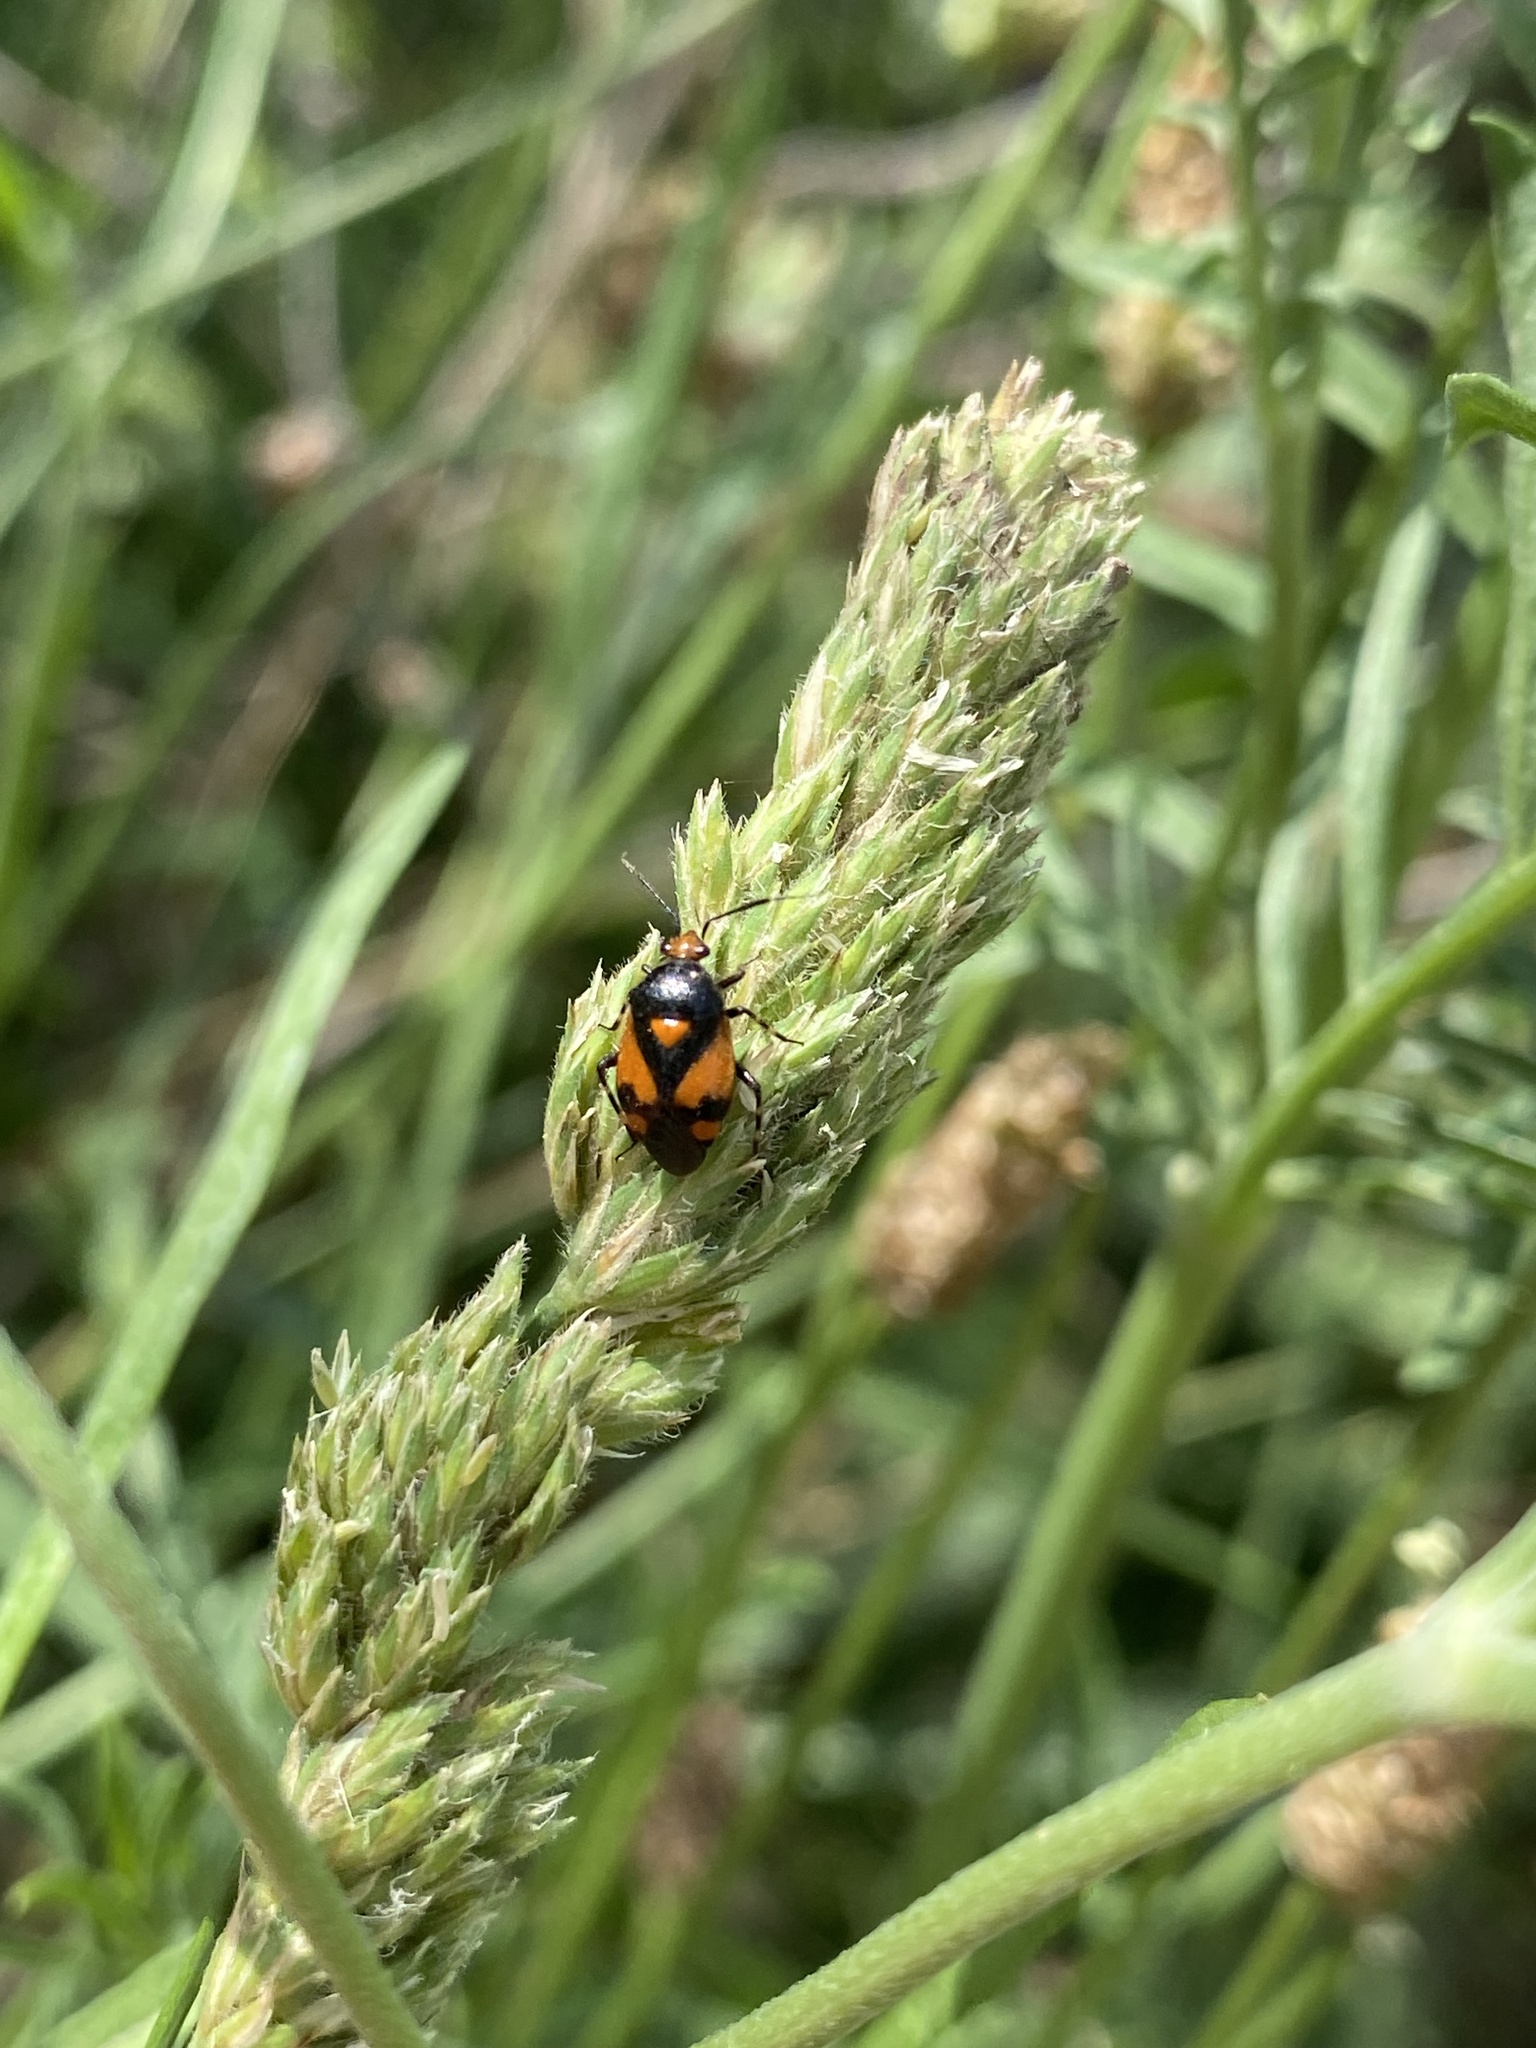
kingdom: Animalia
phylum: Arthropoda
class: Insecta
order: Hemiptera
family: Miridae
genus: Deraeocoris
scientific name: Deraeocoris schach
